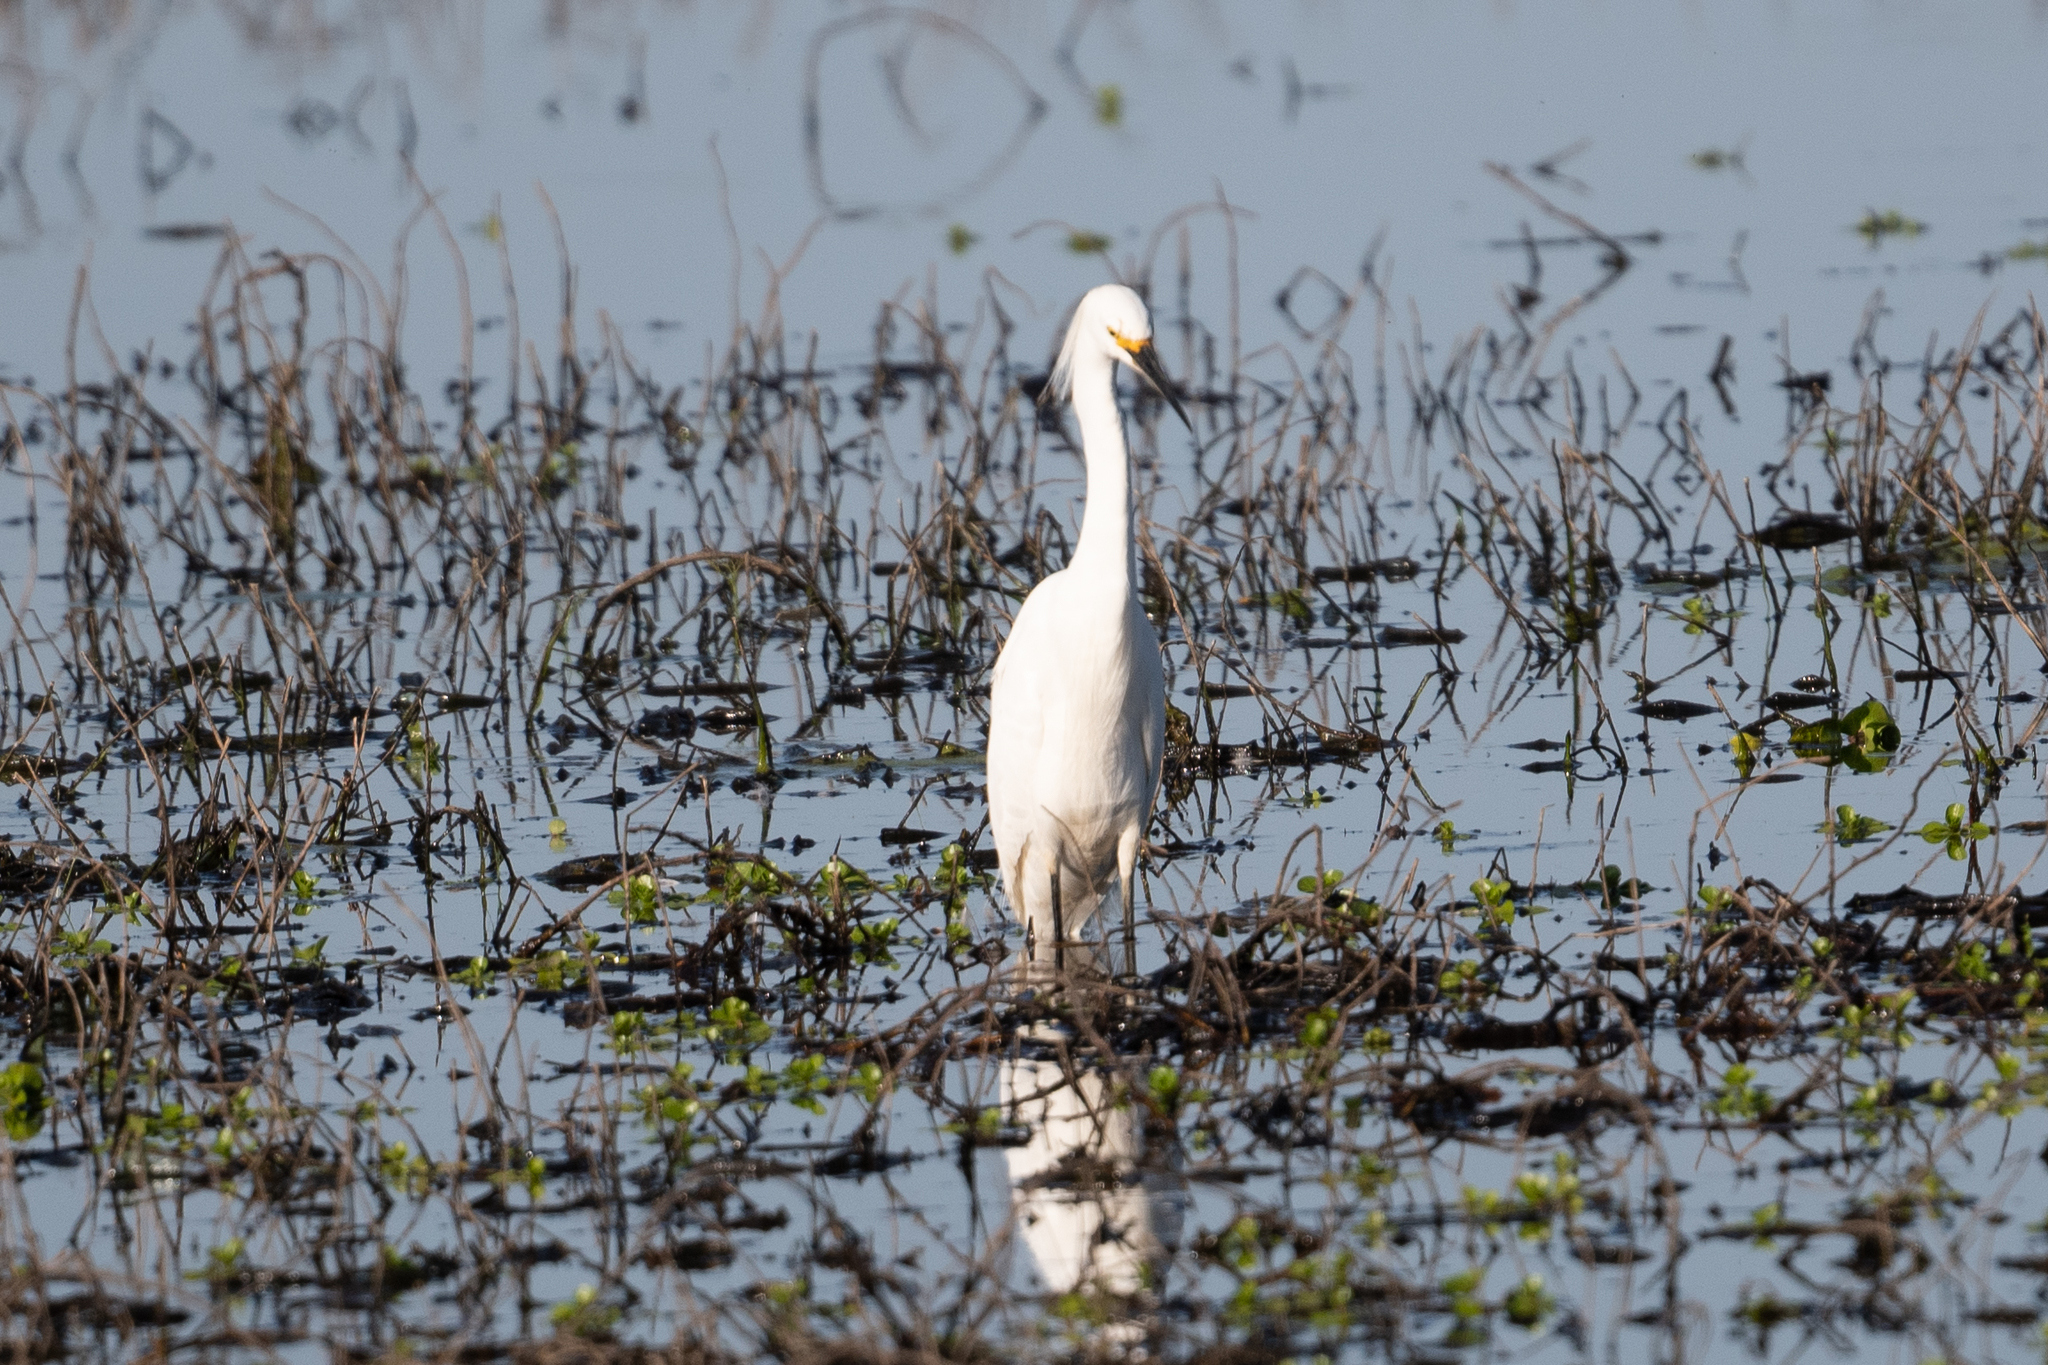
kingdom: Animalia
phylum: Chordata
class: Aves
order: Pelecaniformes
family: Ardeidae
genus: Egretta
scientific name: Egretta thula
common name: Snowy egret
